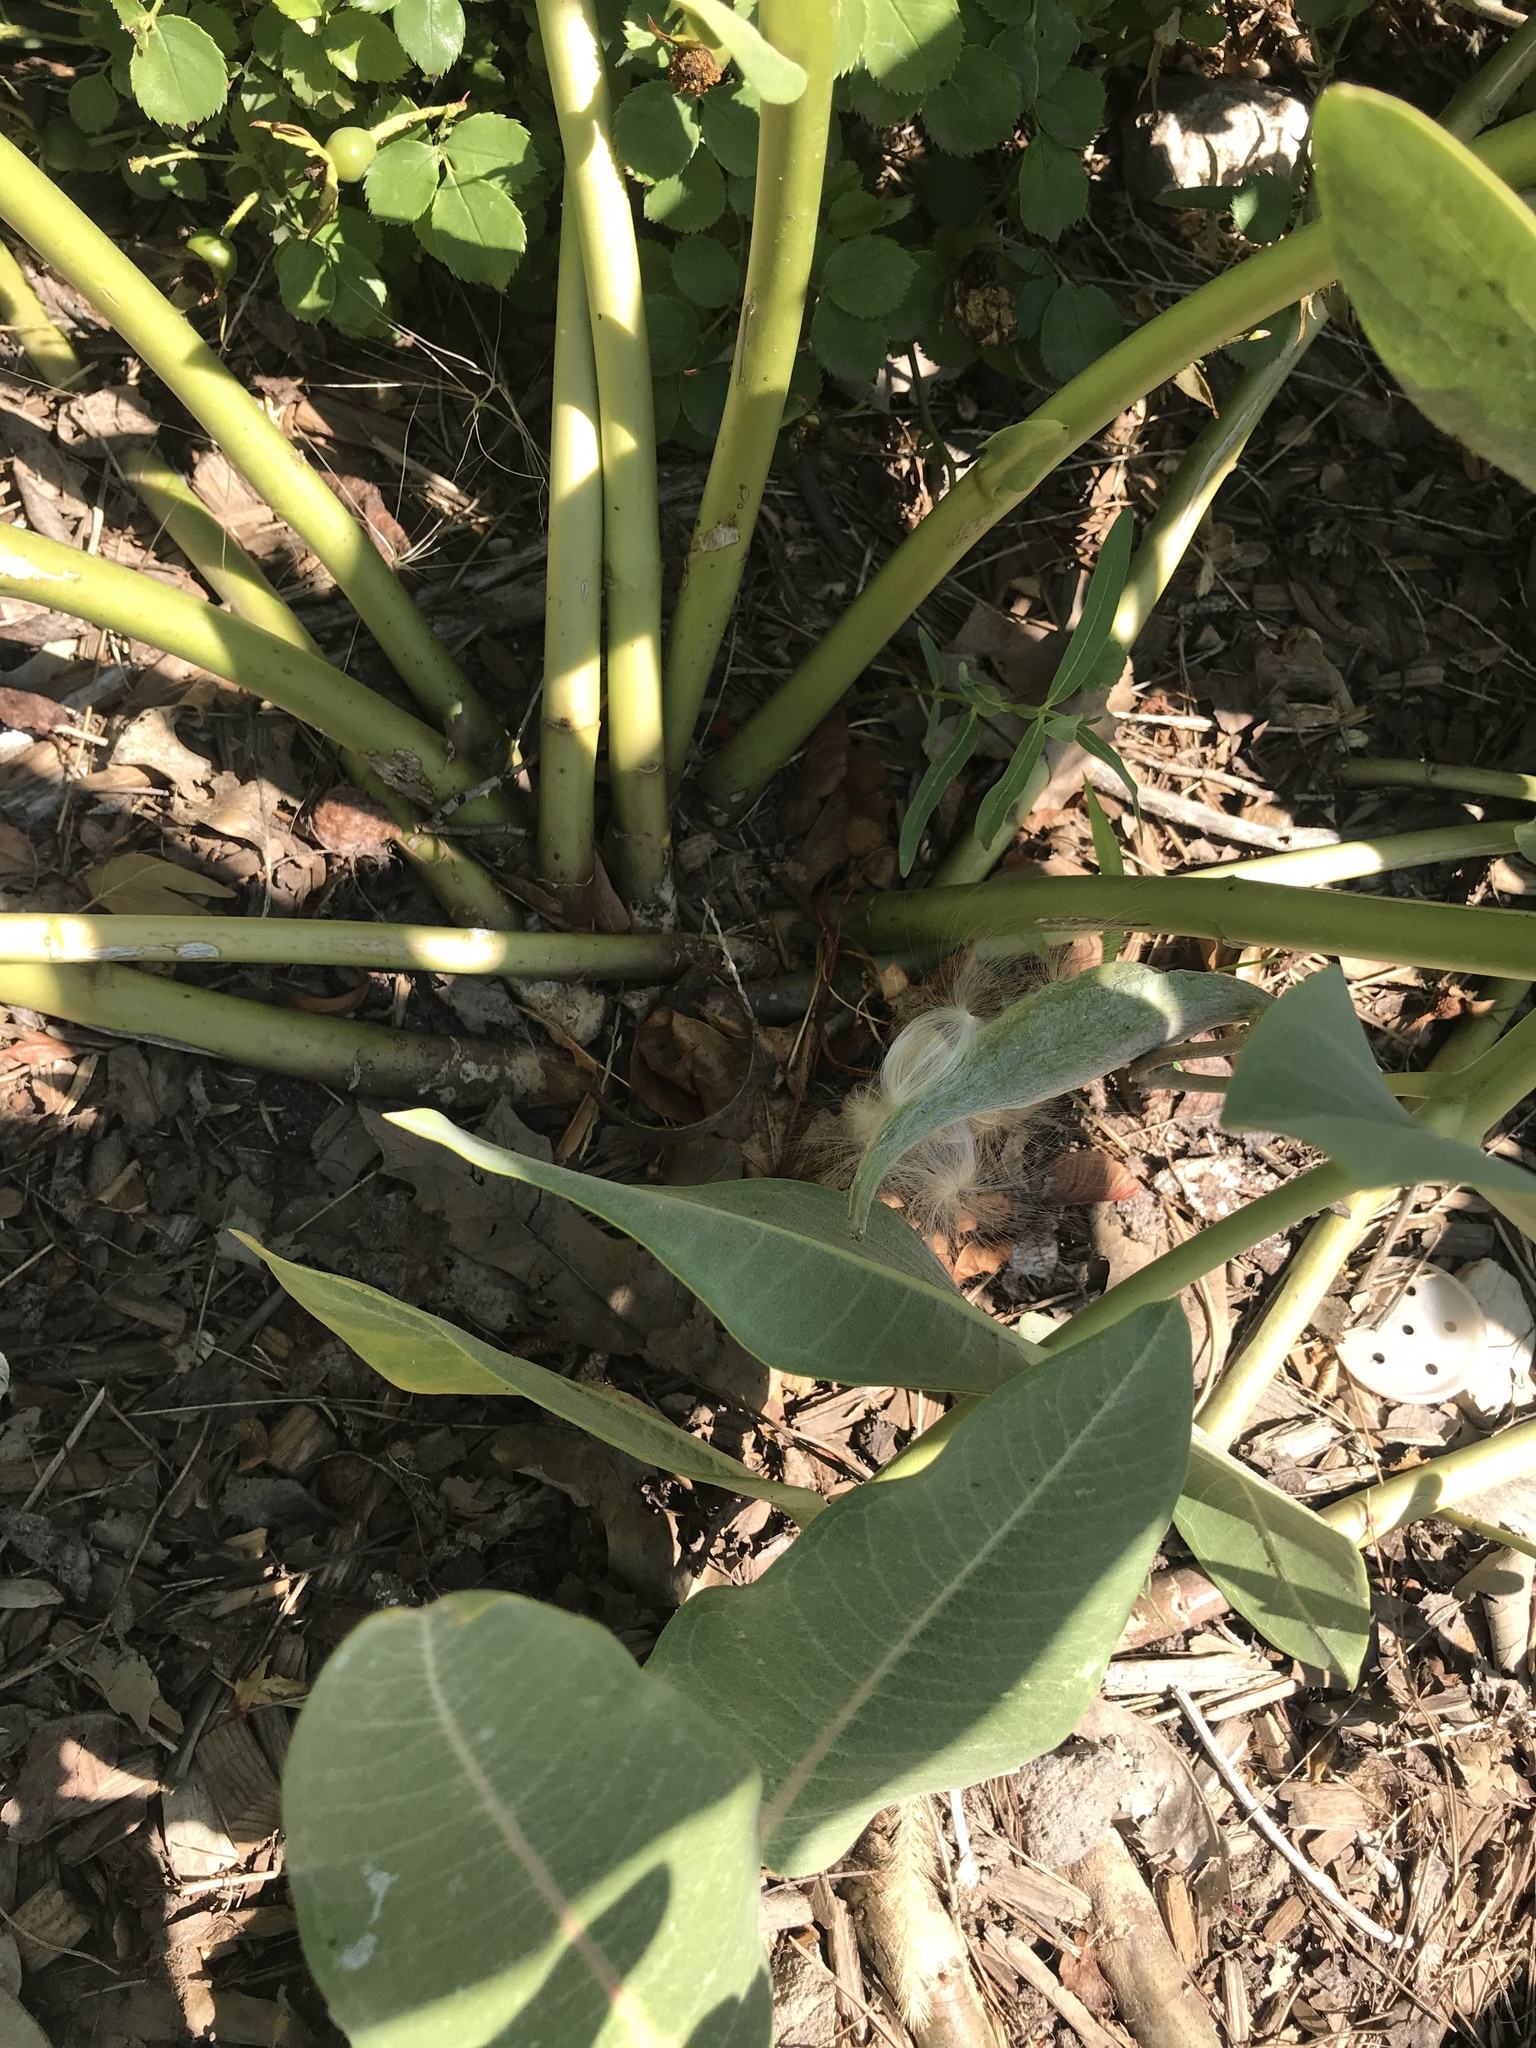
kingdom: Plantae
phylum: Tracheophyta
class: Magnoliopsida
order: Gentianales
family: Apocynaceae
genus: Asclepias
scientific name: Asclepias speciosa
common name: Showy milkweed
